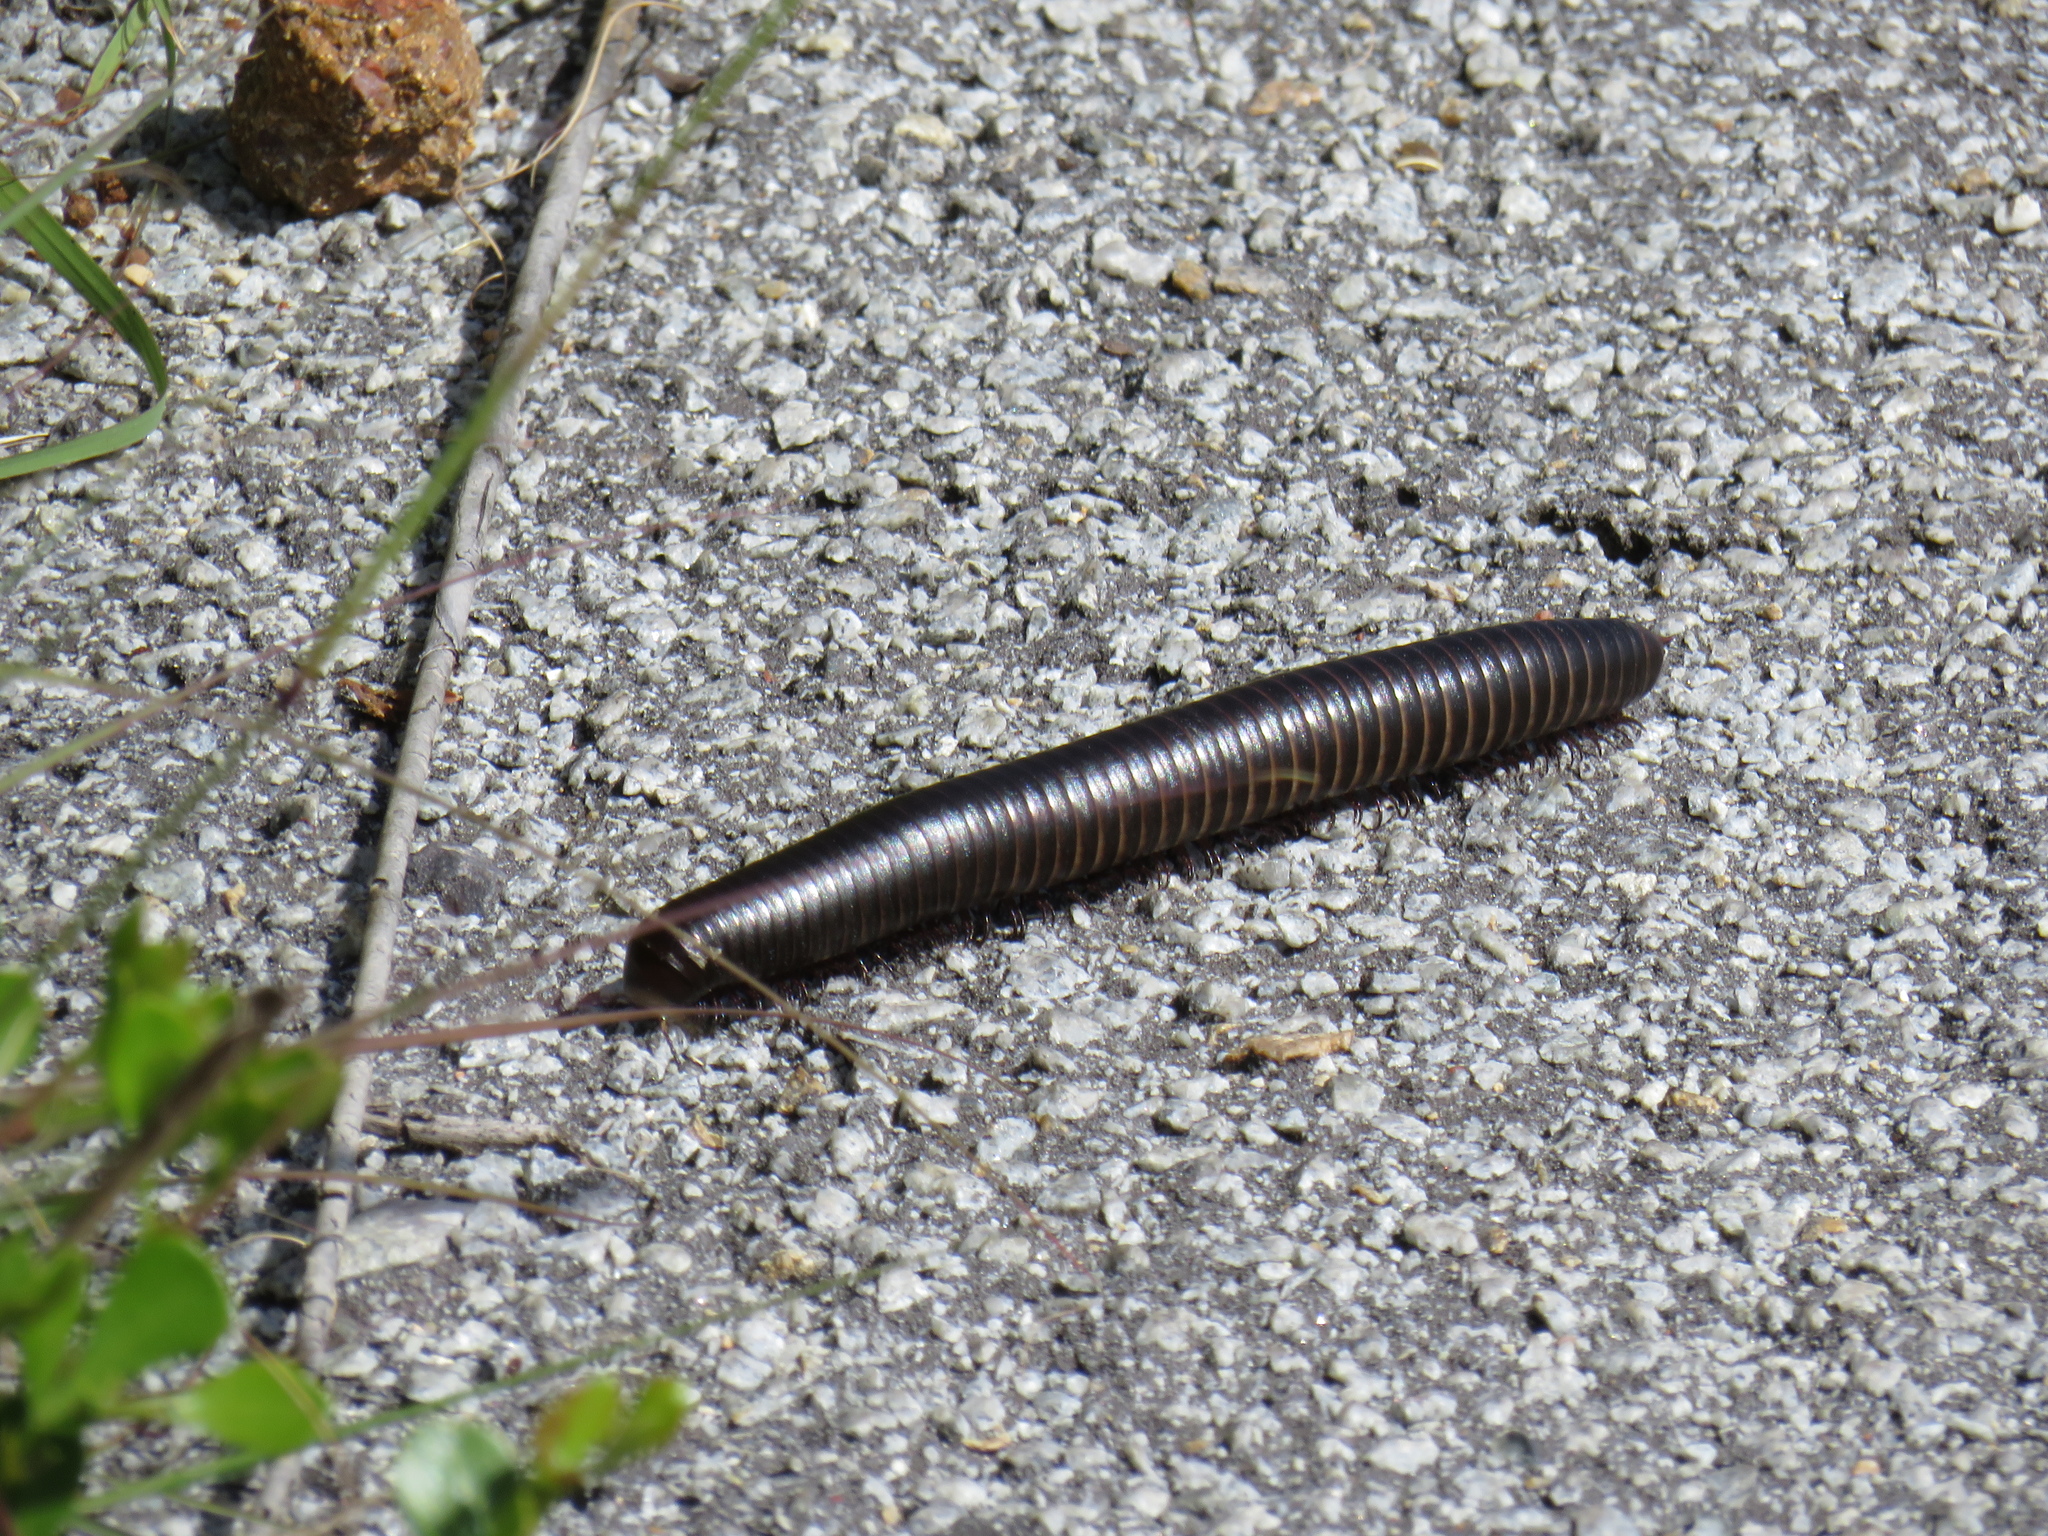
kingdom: Animalia
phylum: Arthropoda
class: Diplopoda
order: Spirostreptida
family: Harpagophoridae
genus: Harpagophora
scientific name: Harpagophora attenuata
